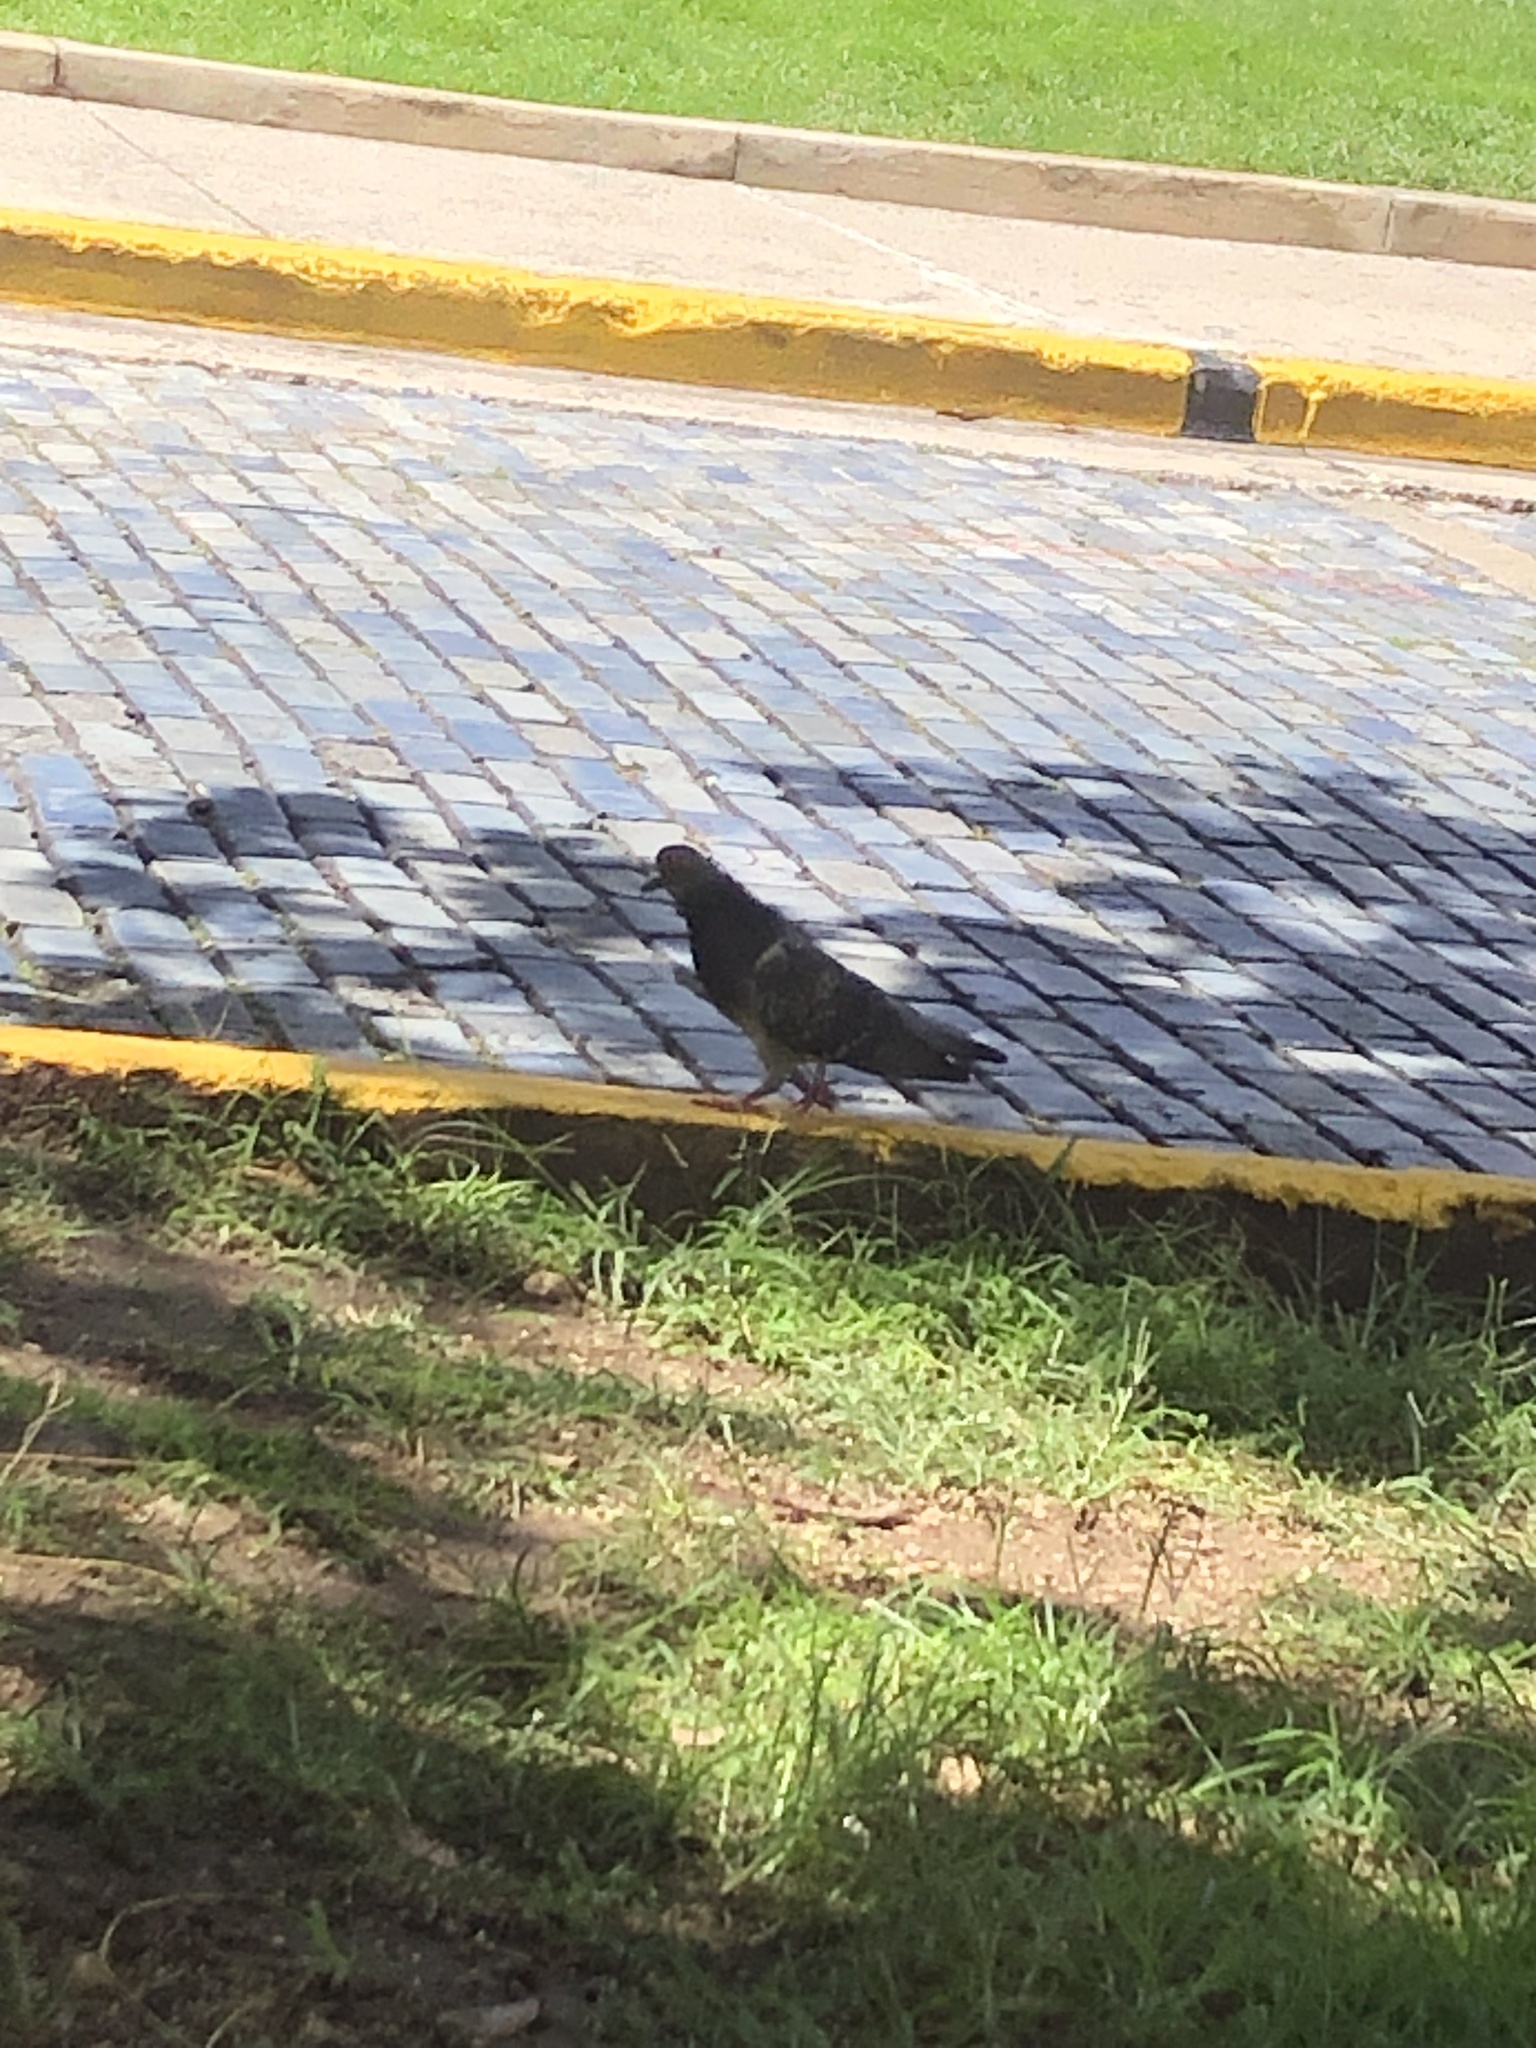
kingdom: Animalia
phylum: Chordata
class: Aves
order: Columbiformes
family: Columbidae
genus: Columba
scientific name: Columba livia
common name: Rock pigeon
